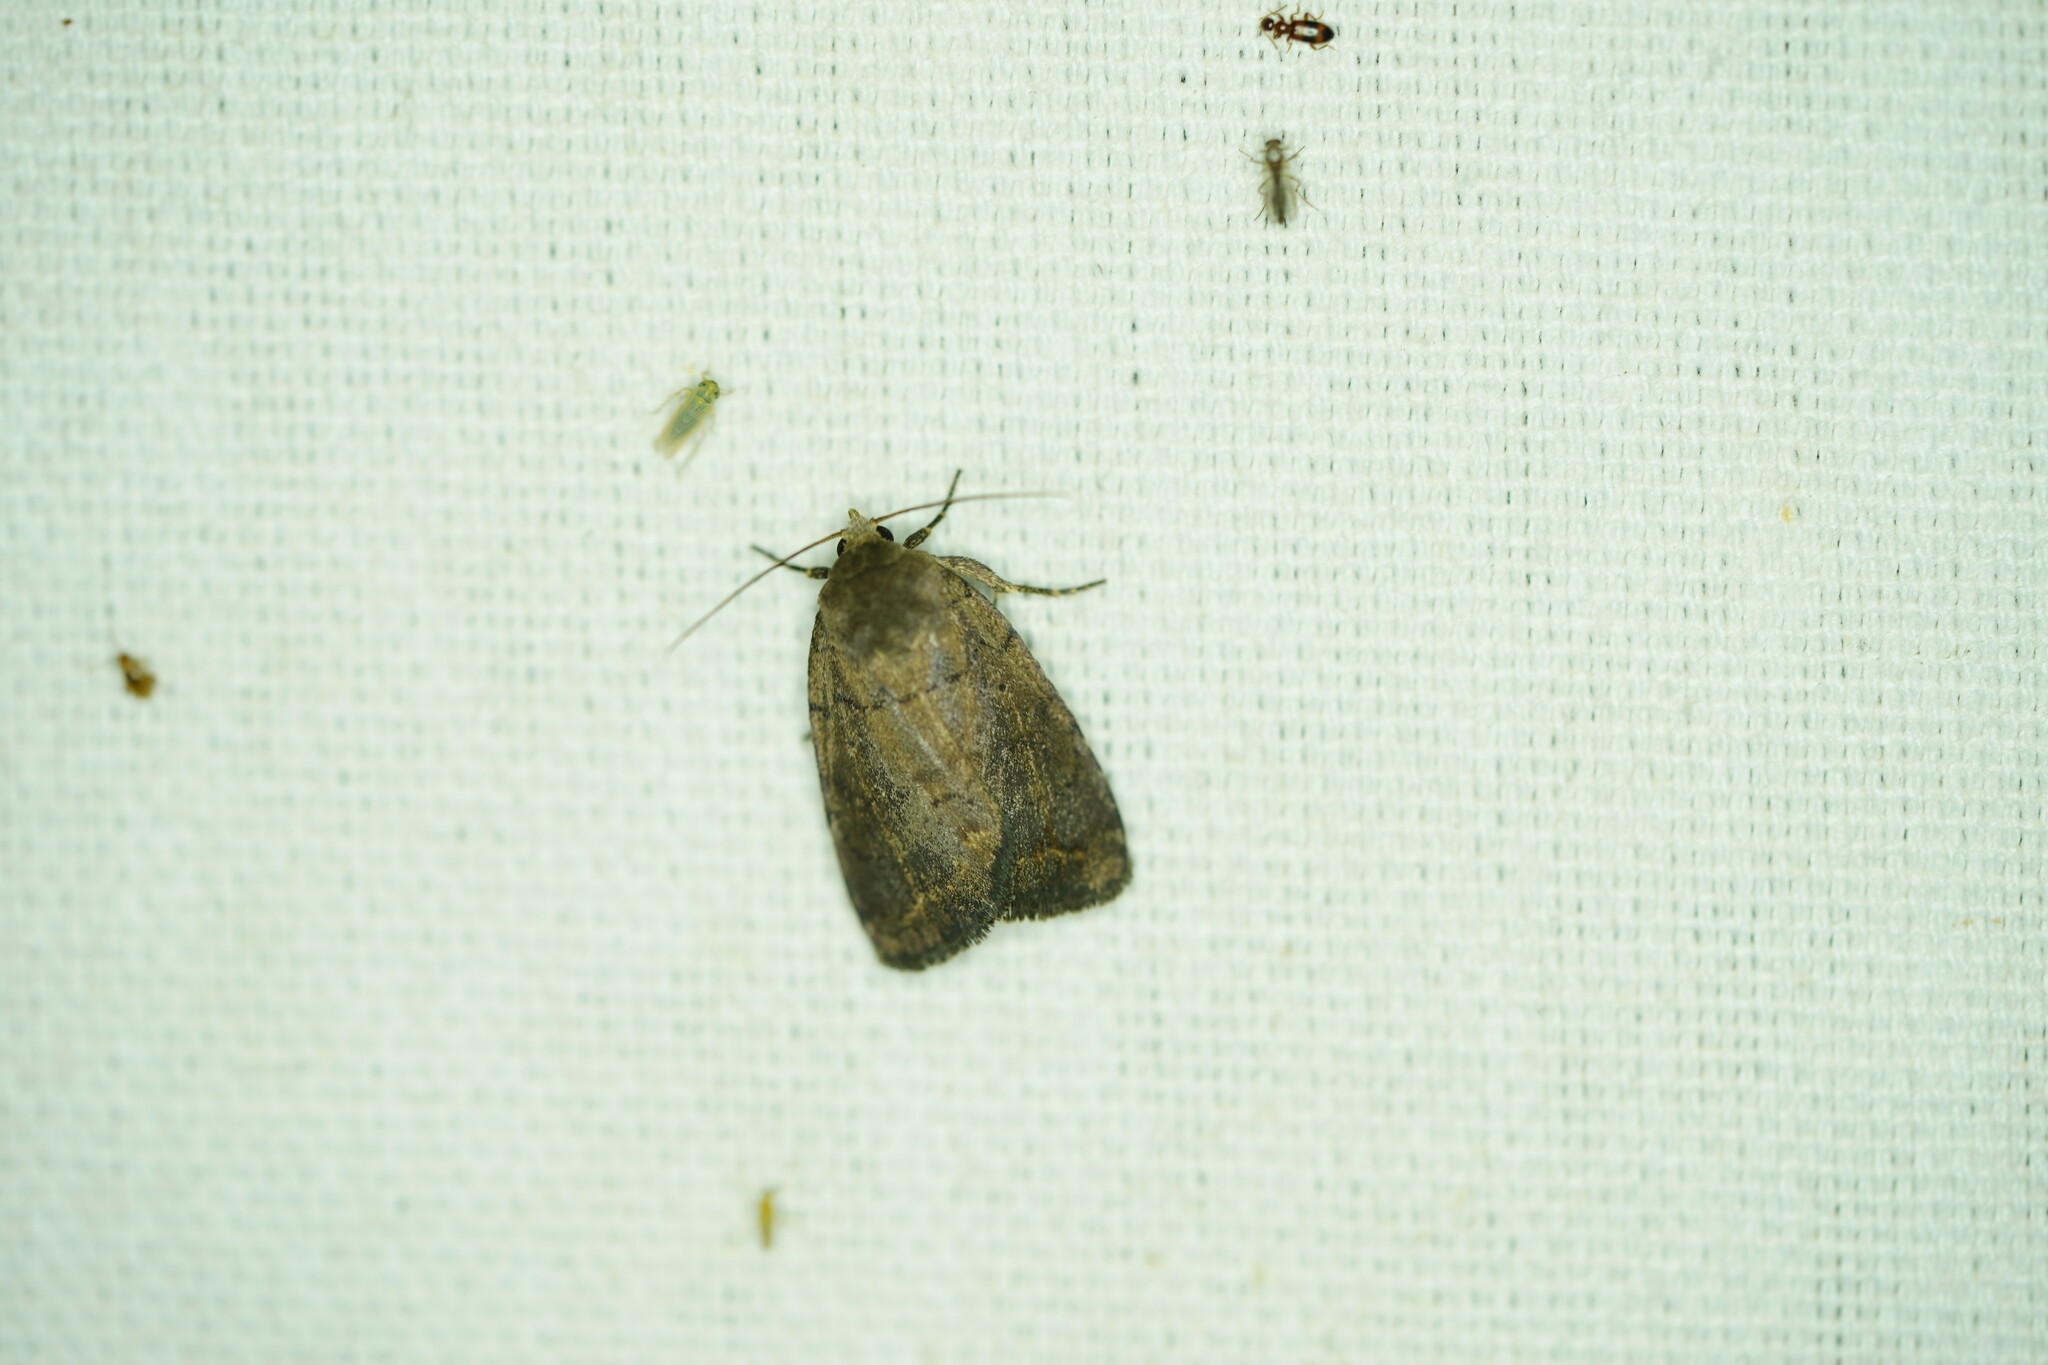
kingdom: Animalia
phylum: Arthropoda
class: Insecta
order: Lepidoptera
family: Noctuidae
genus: Athetis
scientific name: Athetis tarda
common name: Slowpoke moth
